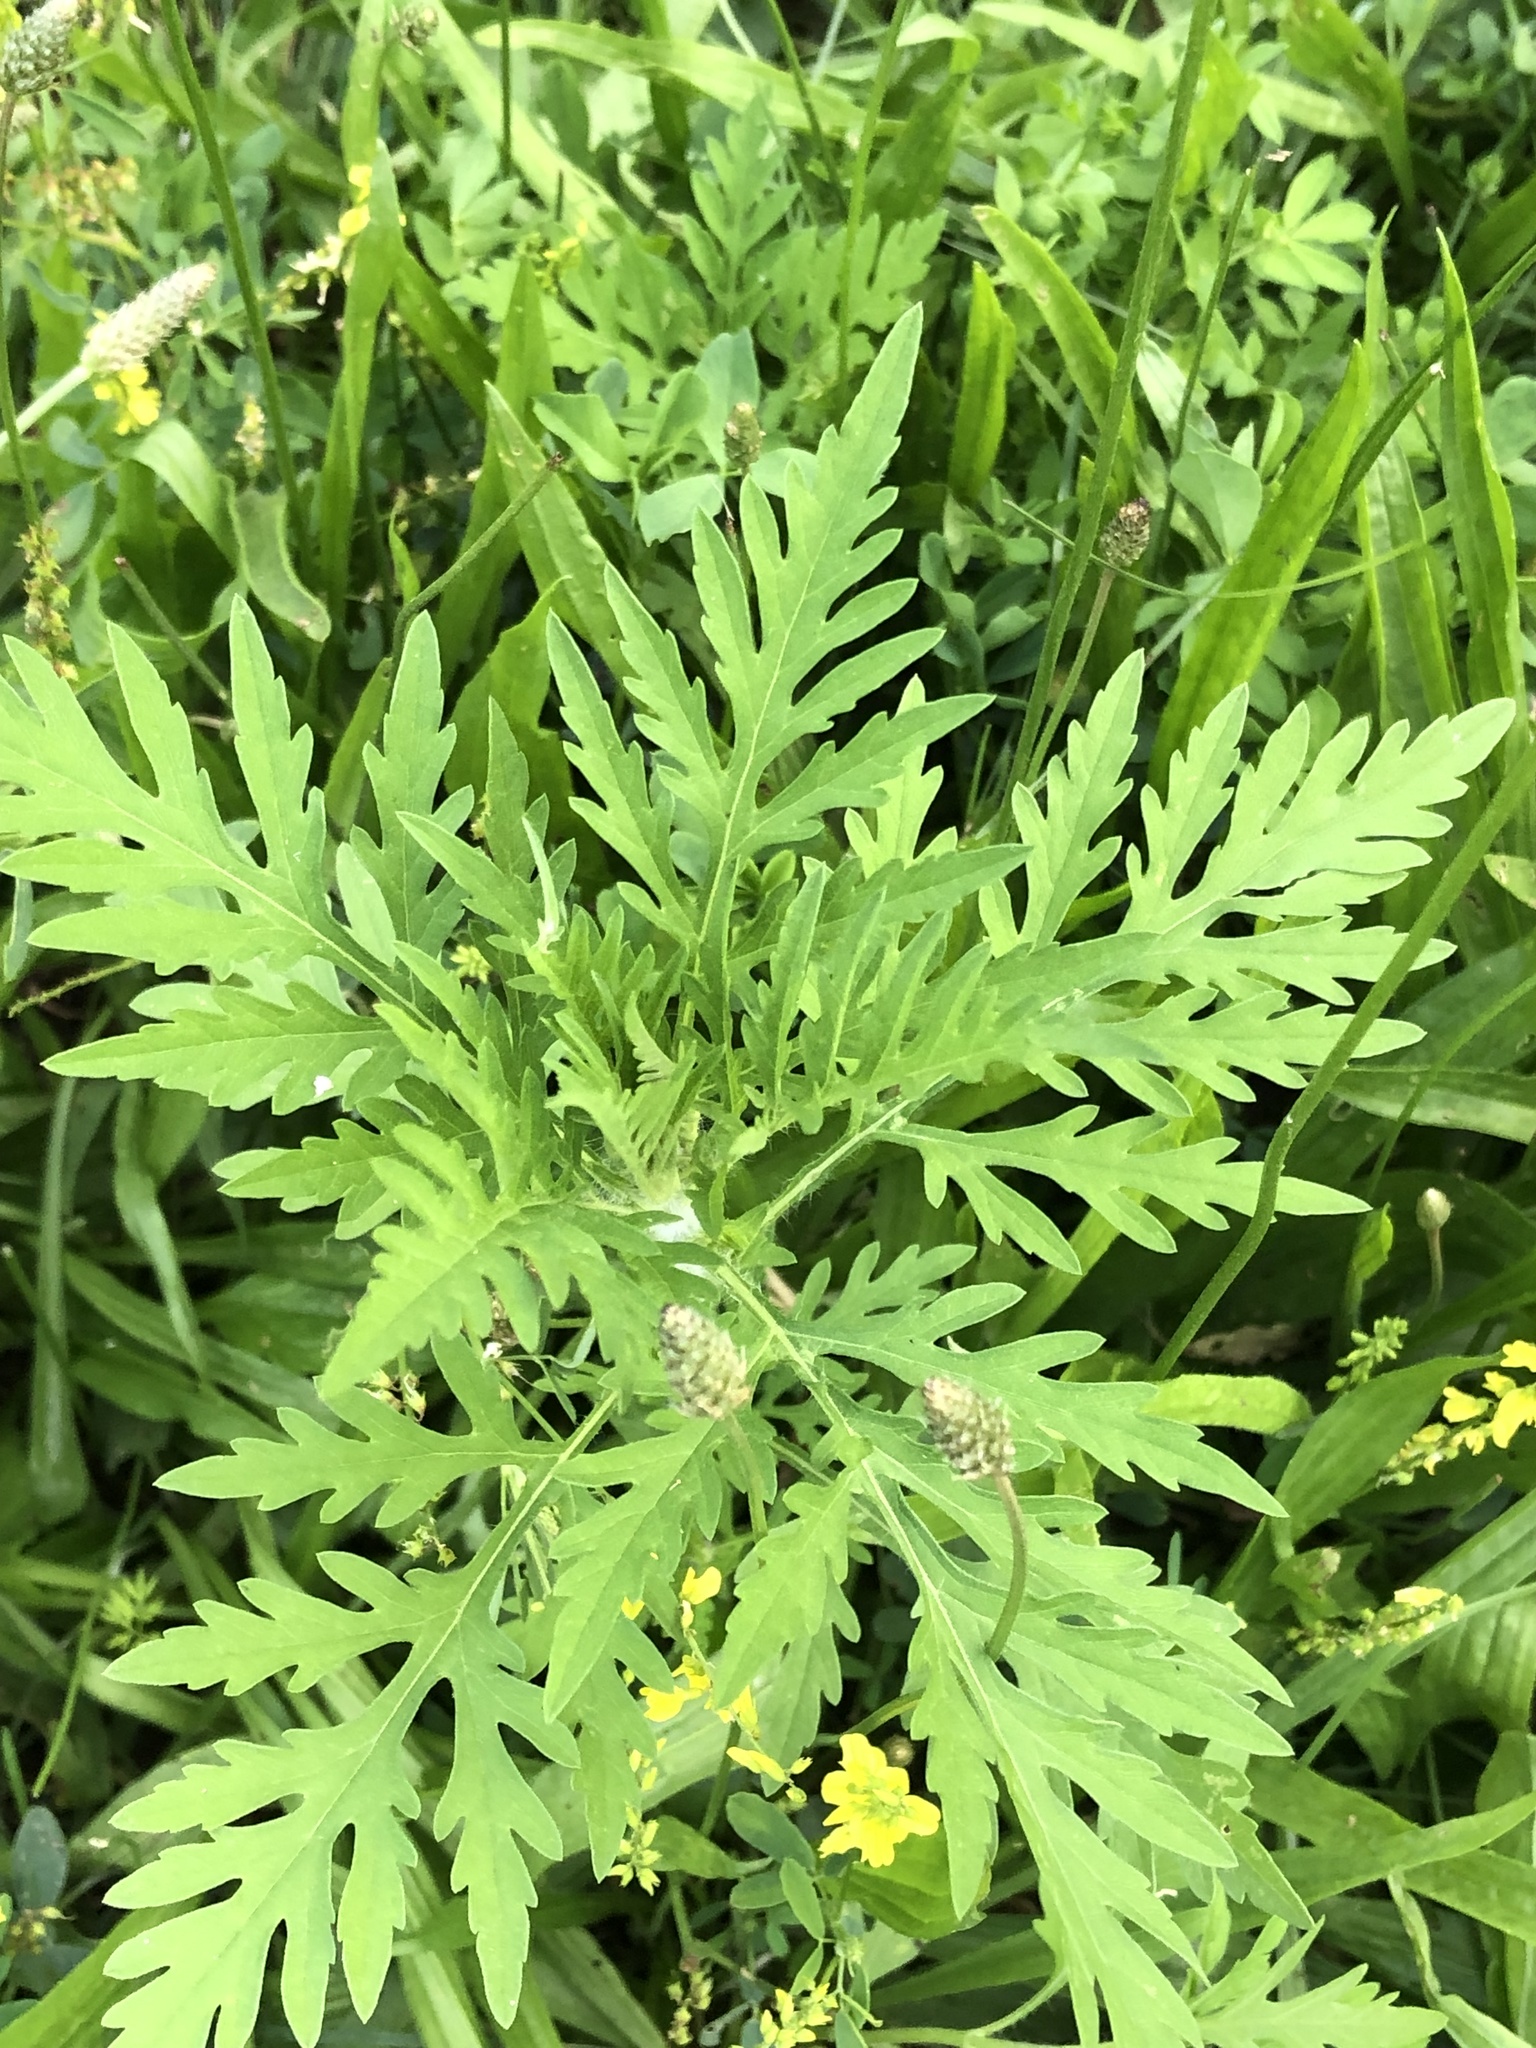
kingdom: Plantae
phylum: Tracheophyta
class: Magnoliopsida
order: Asterales
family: Asteraceae
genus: Ambrosia
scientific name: Ambrosia artemisiifolia
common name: Annual ragweed
